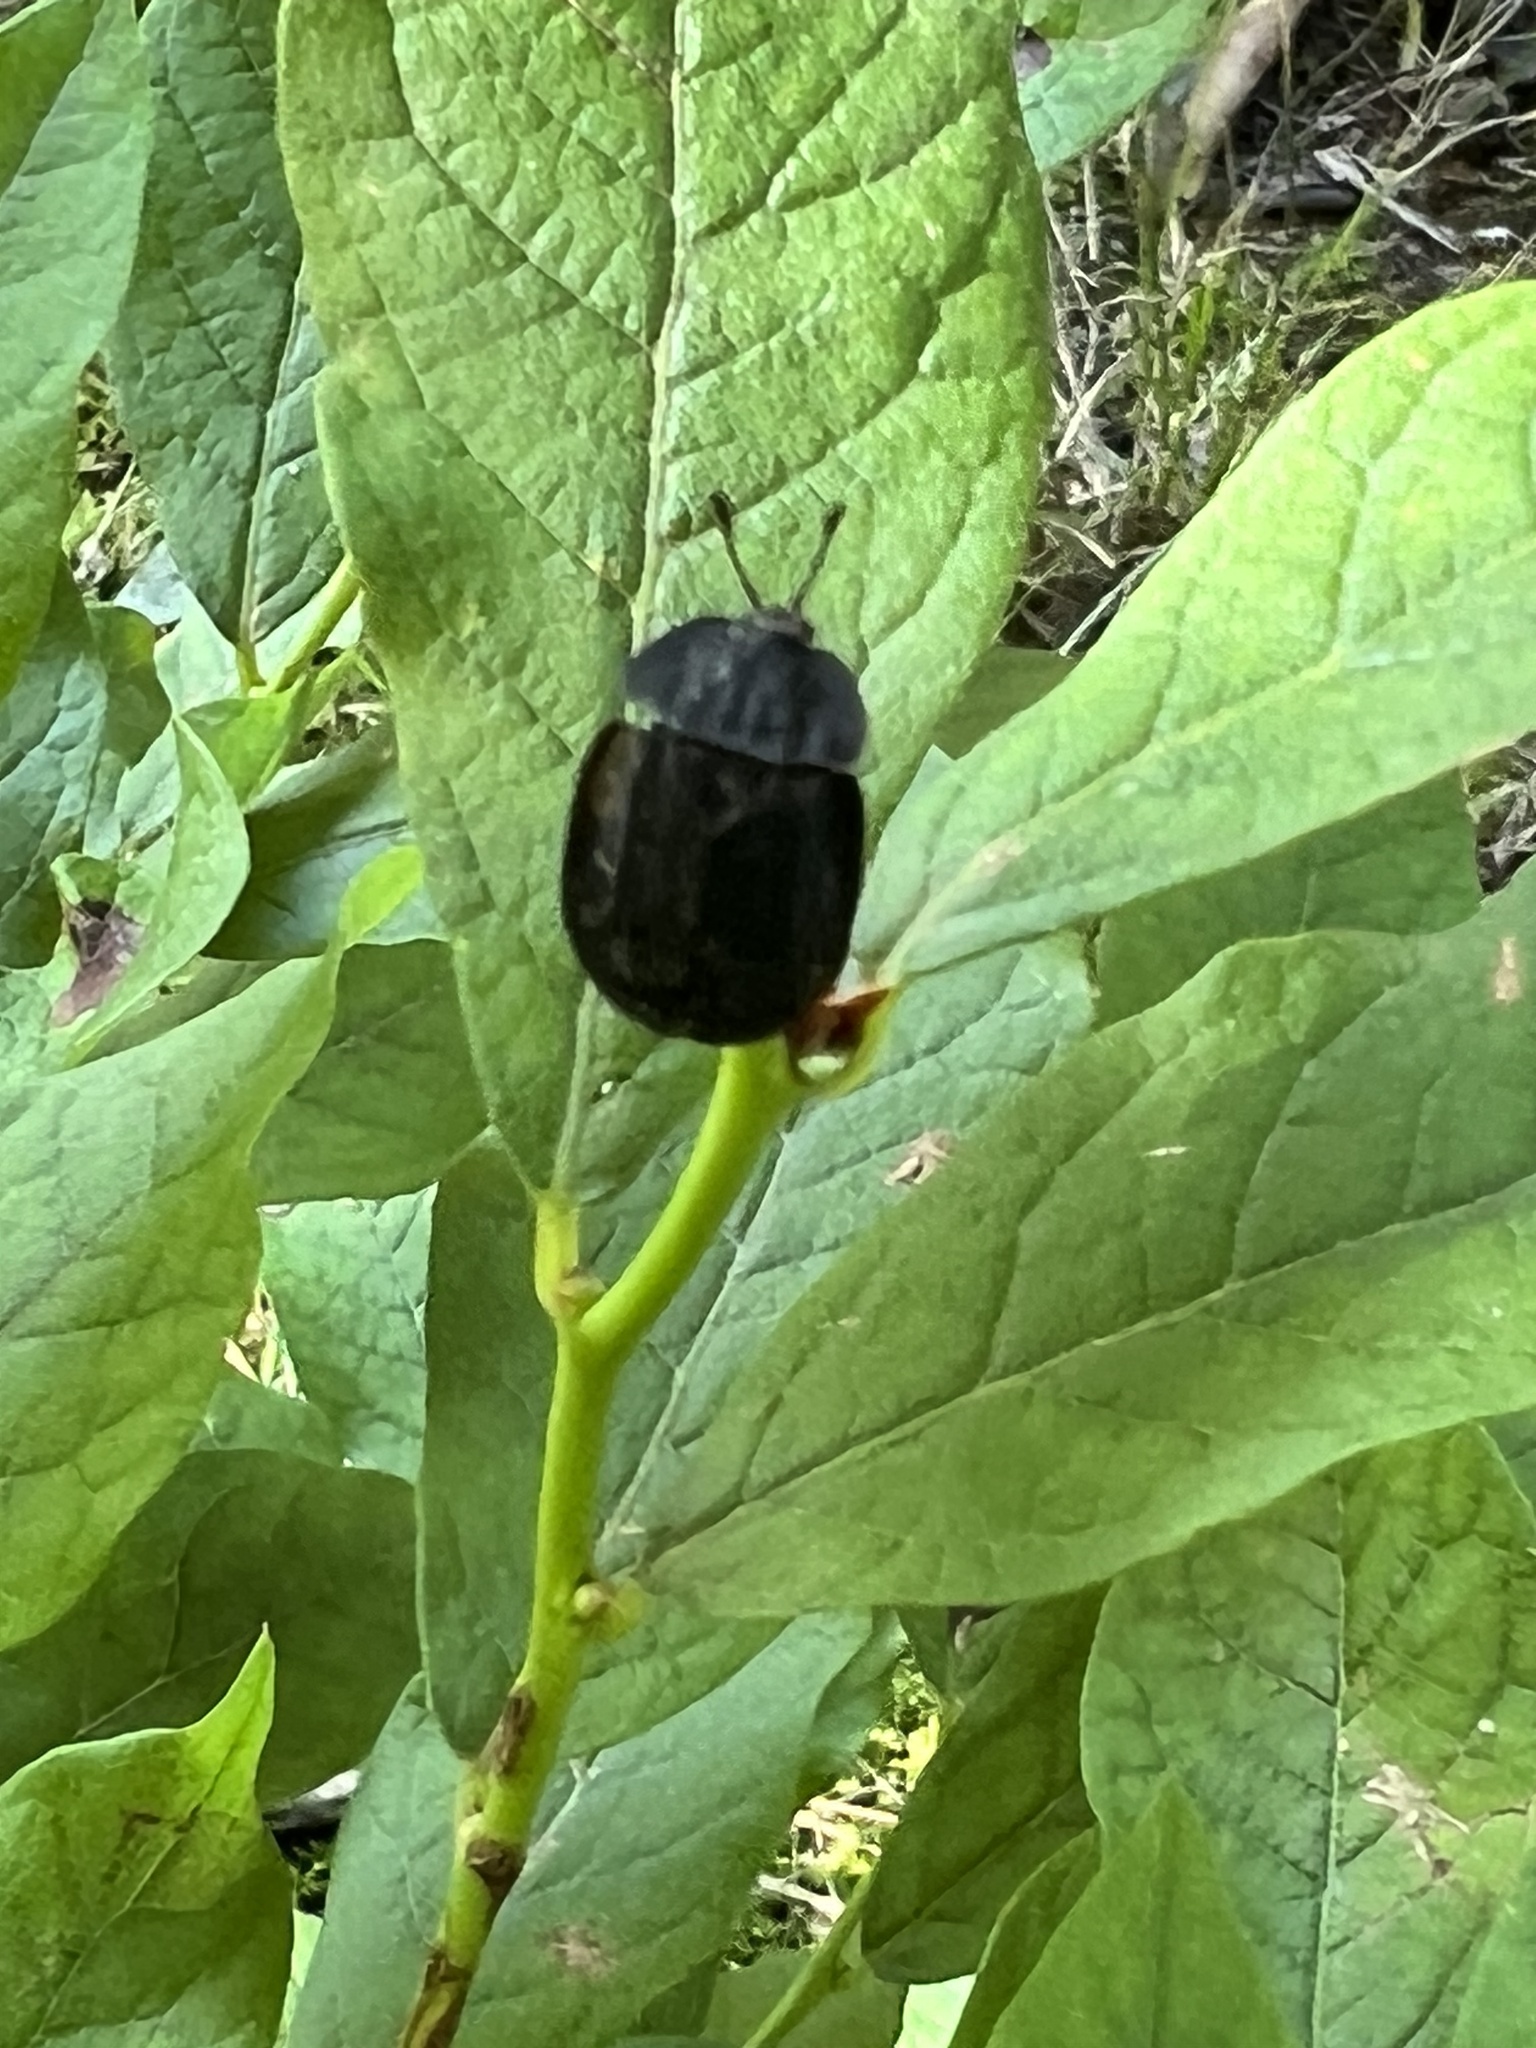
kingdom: Animalia
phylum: Arthropoda
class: Insecta
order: Coleoptera
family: Staphylinidae
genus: Oiceoptoma
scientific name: Oiceoptoma inaequale
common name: Ridged carrion beetle
